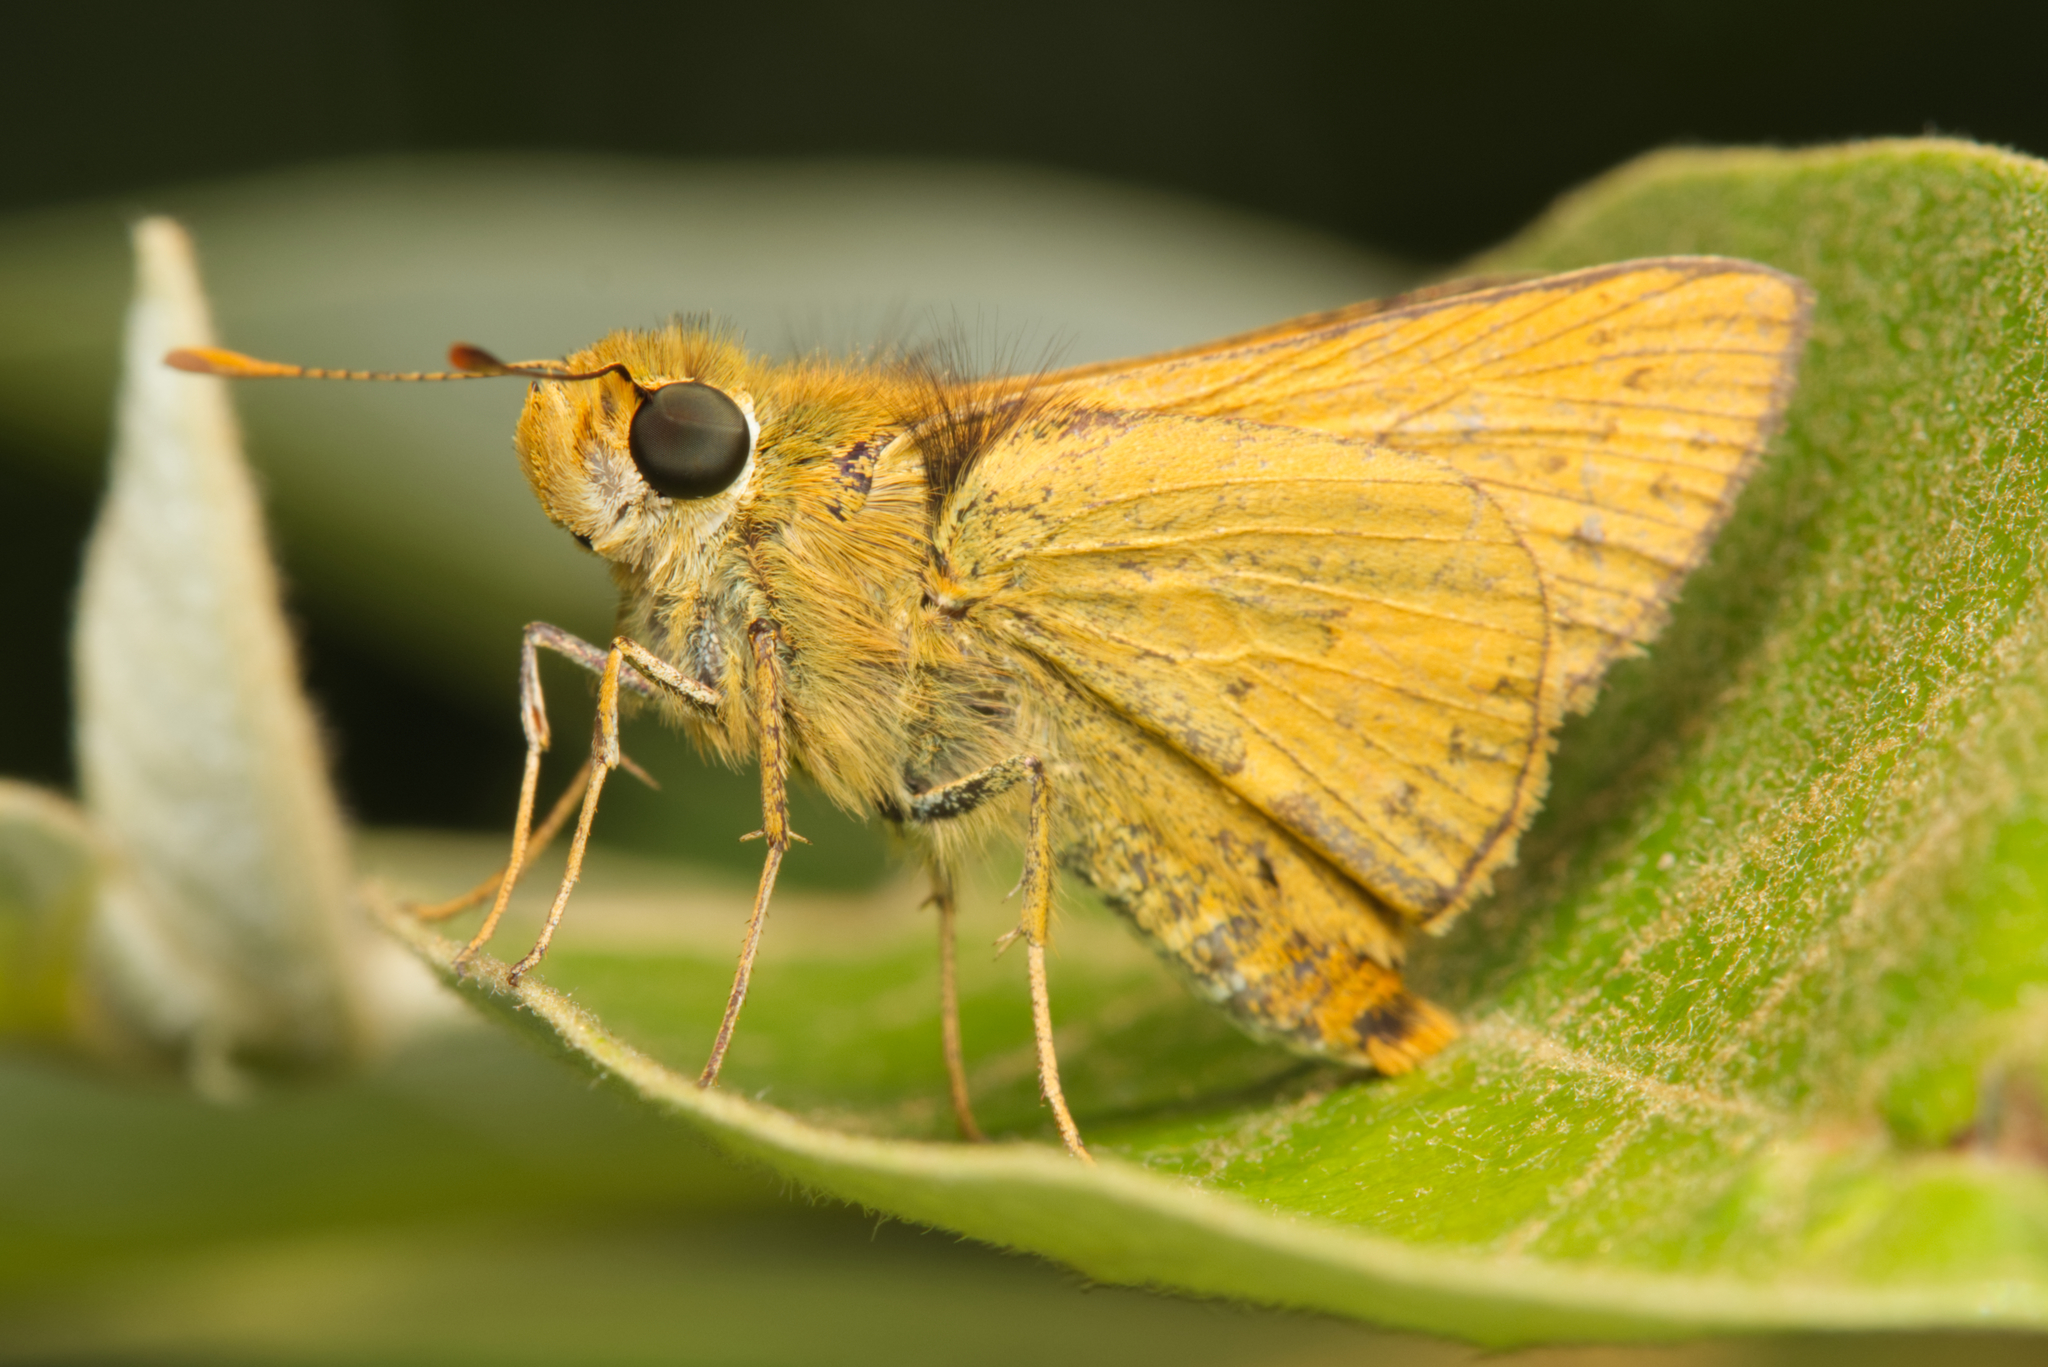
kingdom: Animalia
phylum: Arthropoda
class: Insecta
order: Lepidoptera
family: Hesperiidae
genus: Telicota
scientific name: Telicota colon
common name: Pale palm dart
